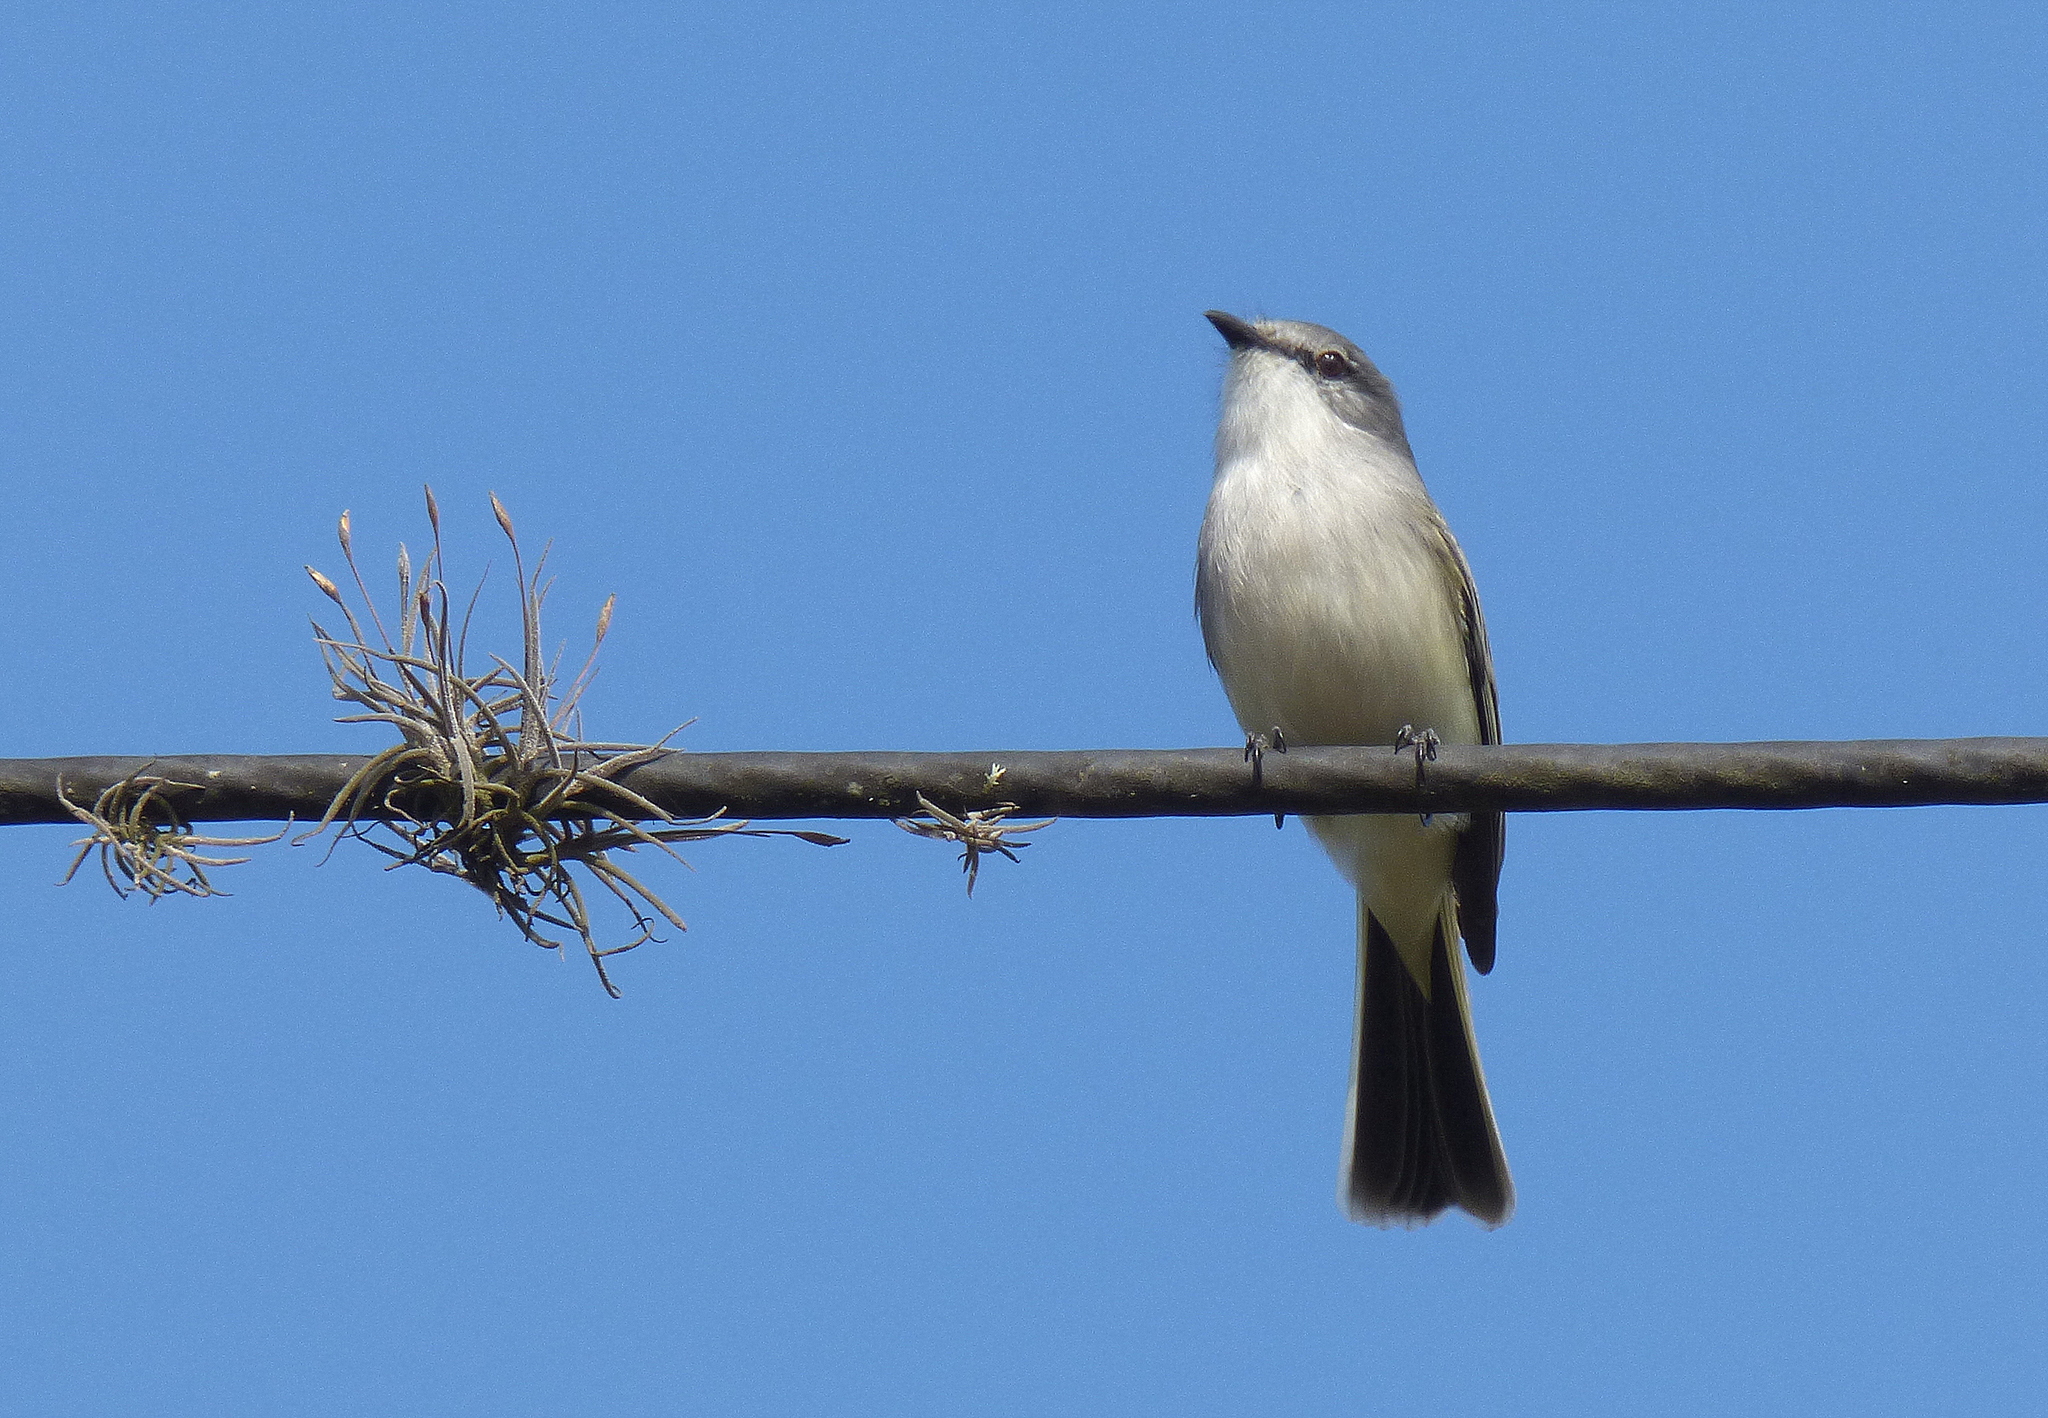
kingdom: Animalia
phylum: Chordata
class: Aves
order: Passeriformes
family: Tyrannidae
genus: Suiriri
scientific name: Suiriri suiriri
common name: Suiriri flycatcher
